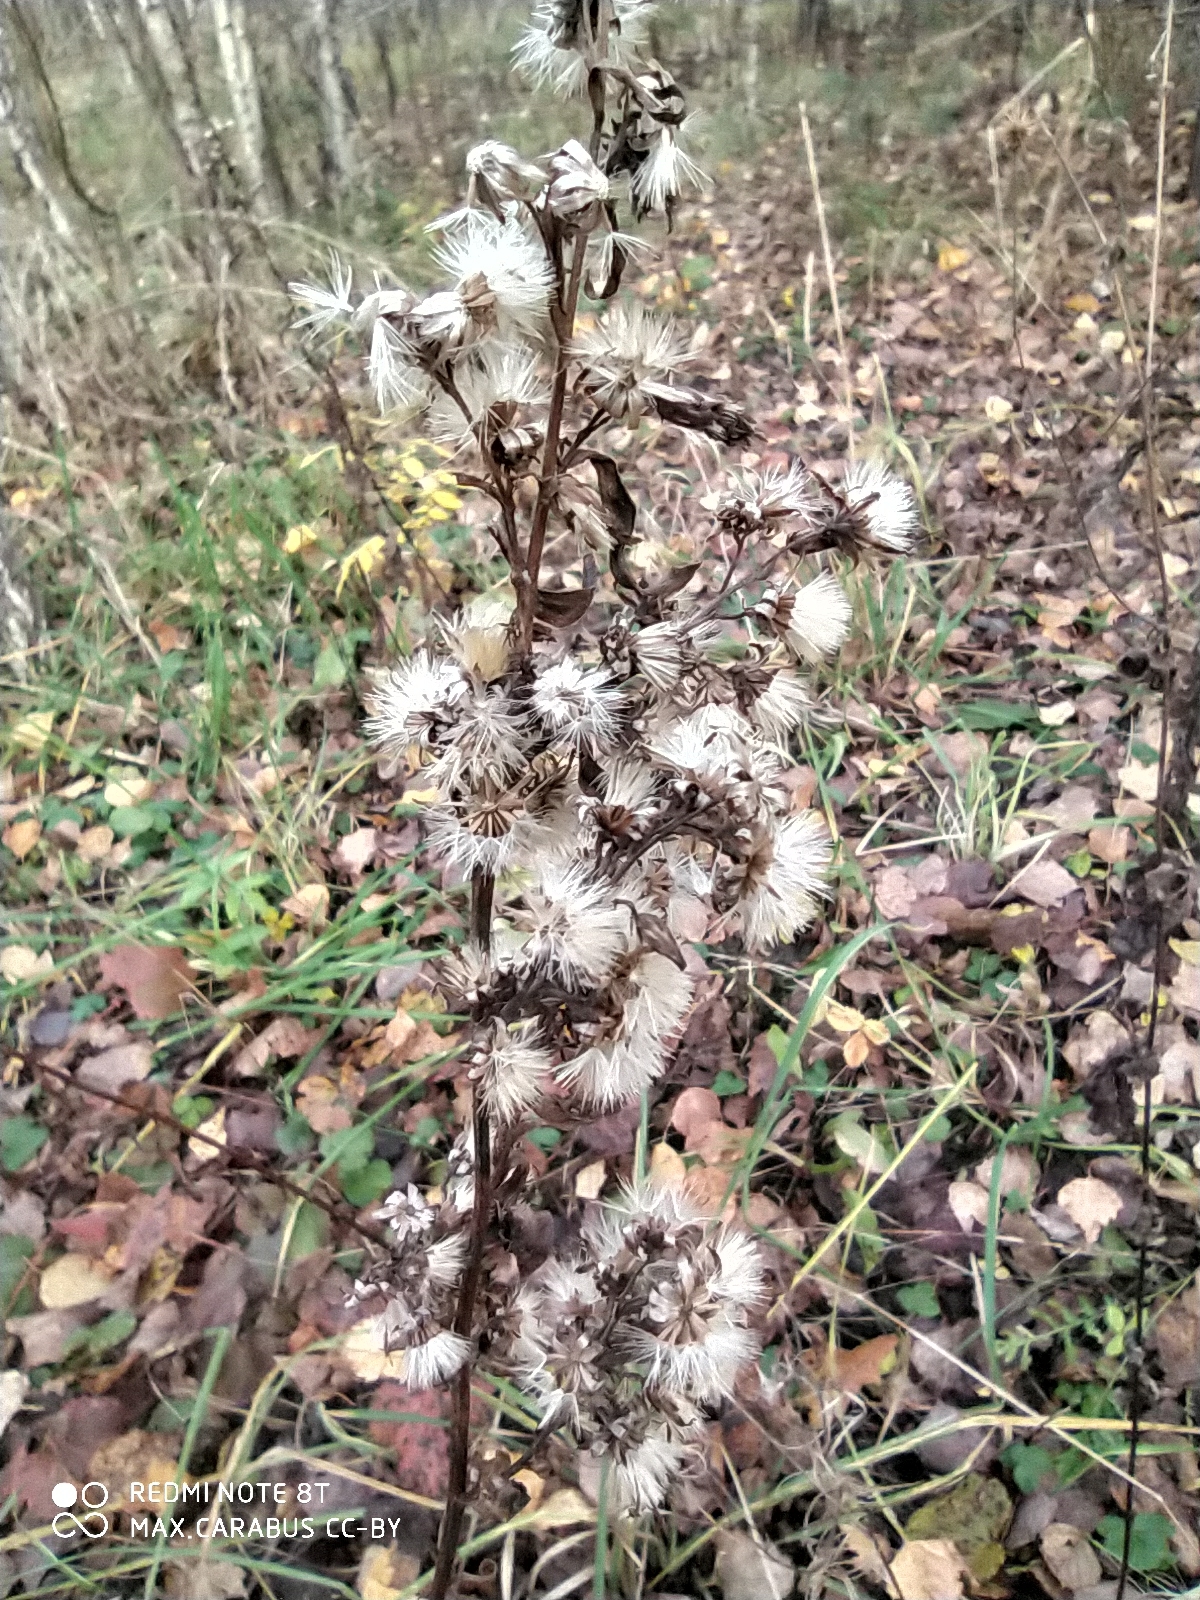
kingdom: Plantae
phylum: Tracheophyta
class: Magnoliopsida
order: Asterales
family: Asteraceae
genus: Solidago
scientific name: Solidago virgaurea
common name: Goldenrod
